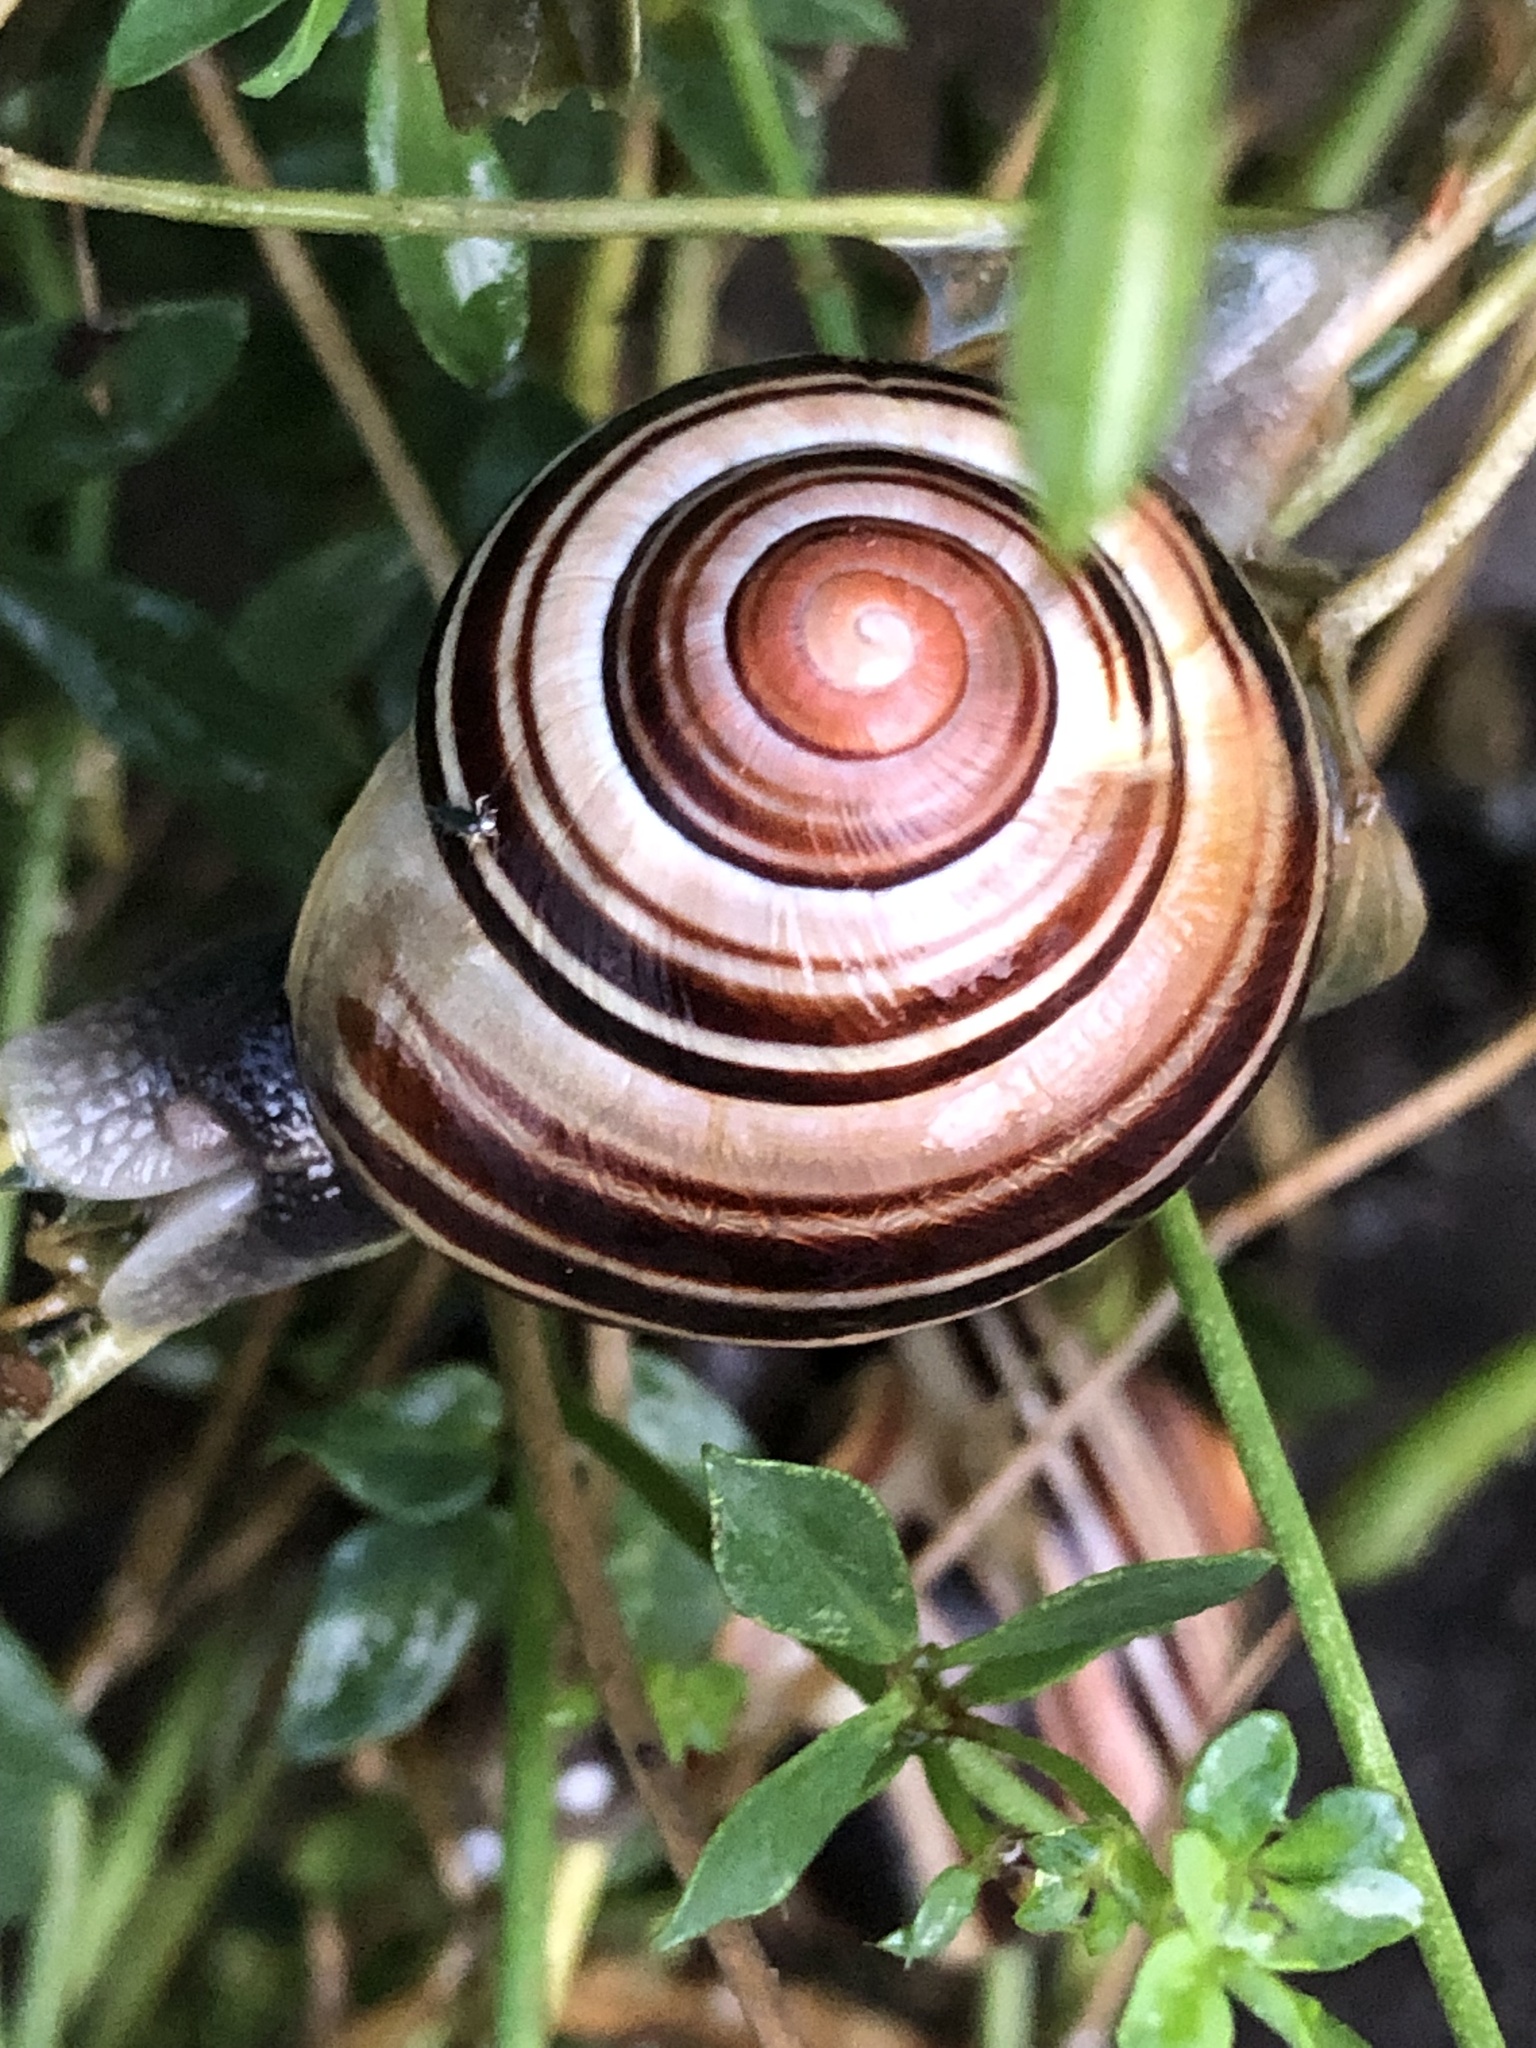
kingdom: Animalia
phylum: Mollusca
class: Gastropoda
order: Stylommatophora
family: Helicidae
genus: Cepaea
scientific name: Cepaea nemoralis
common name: Grovesnail
